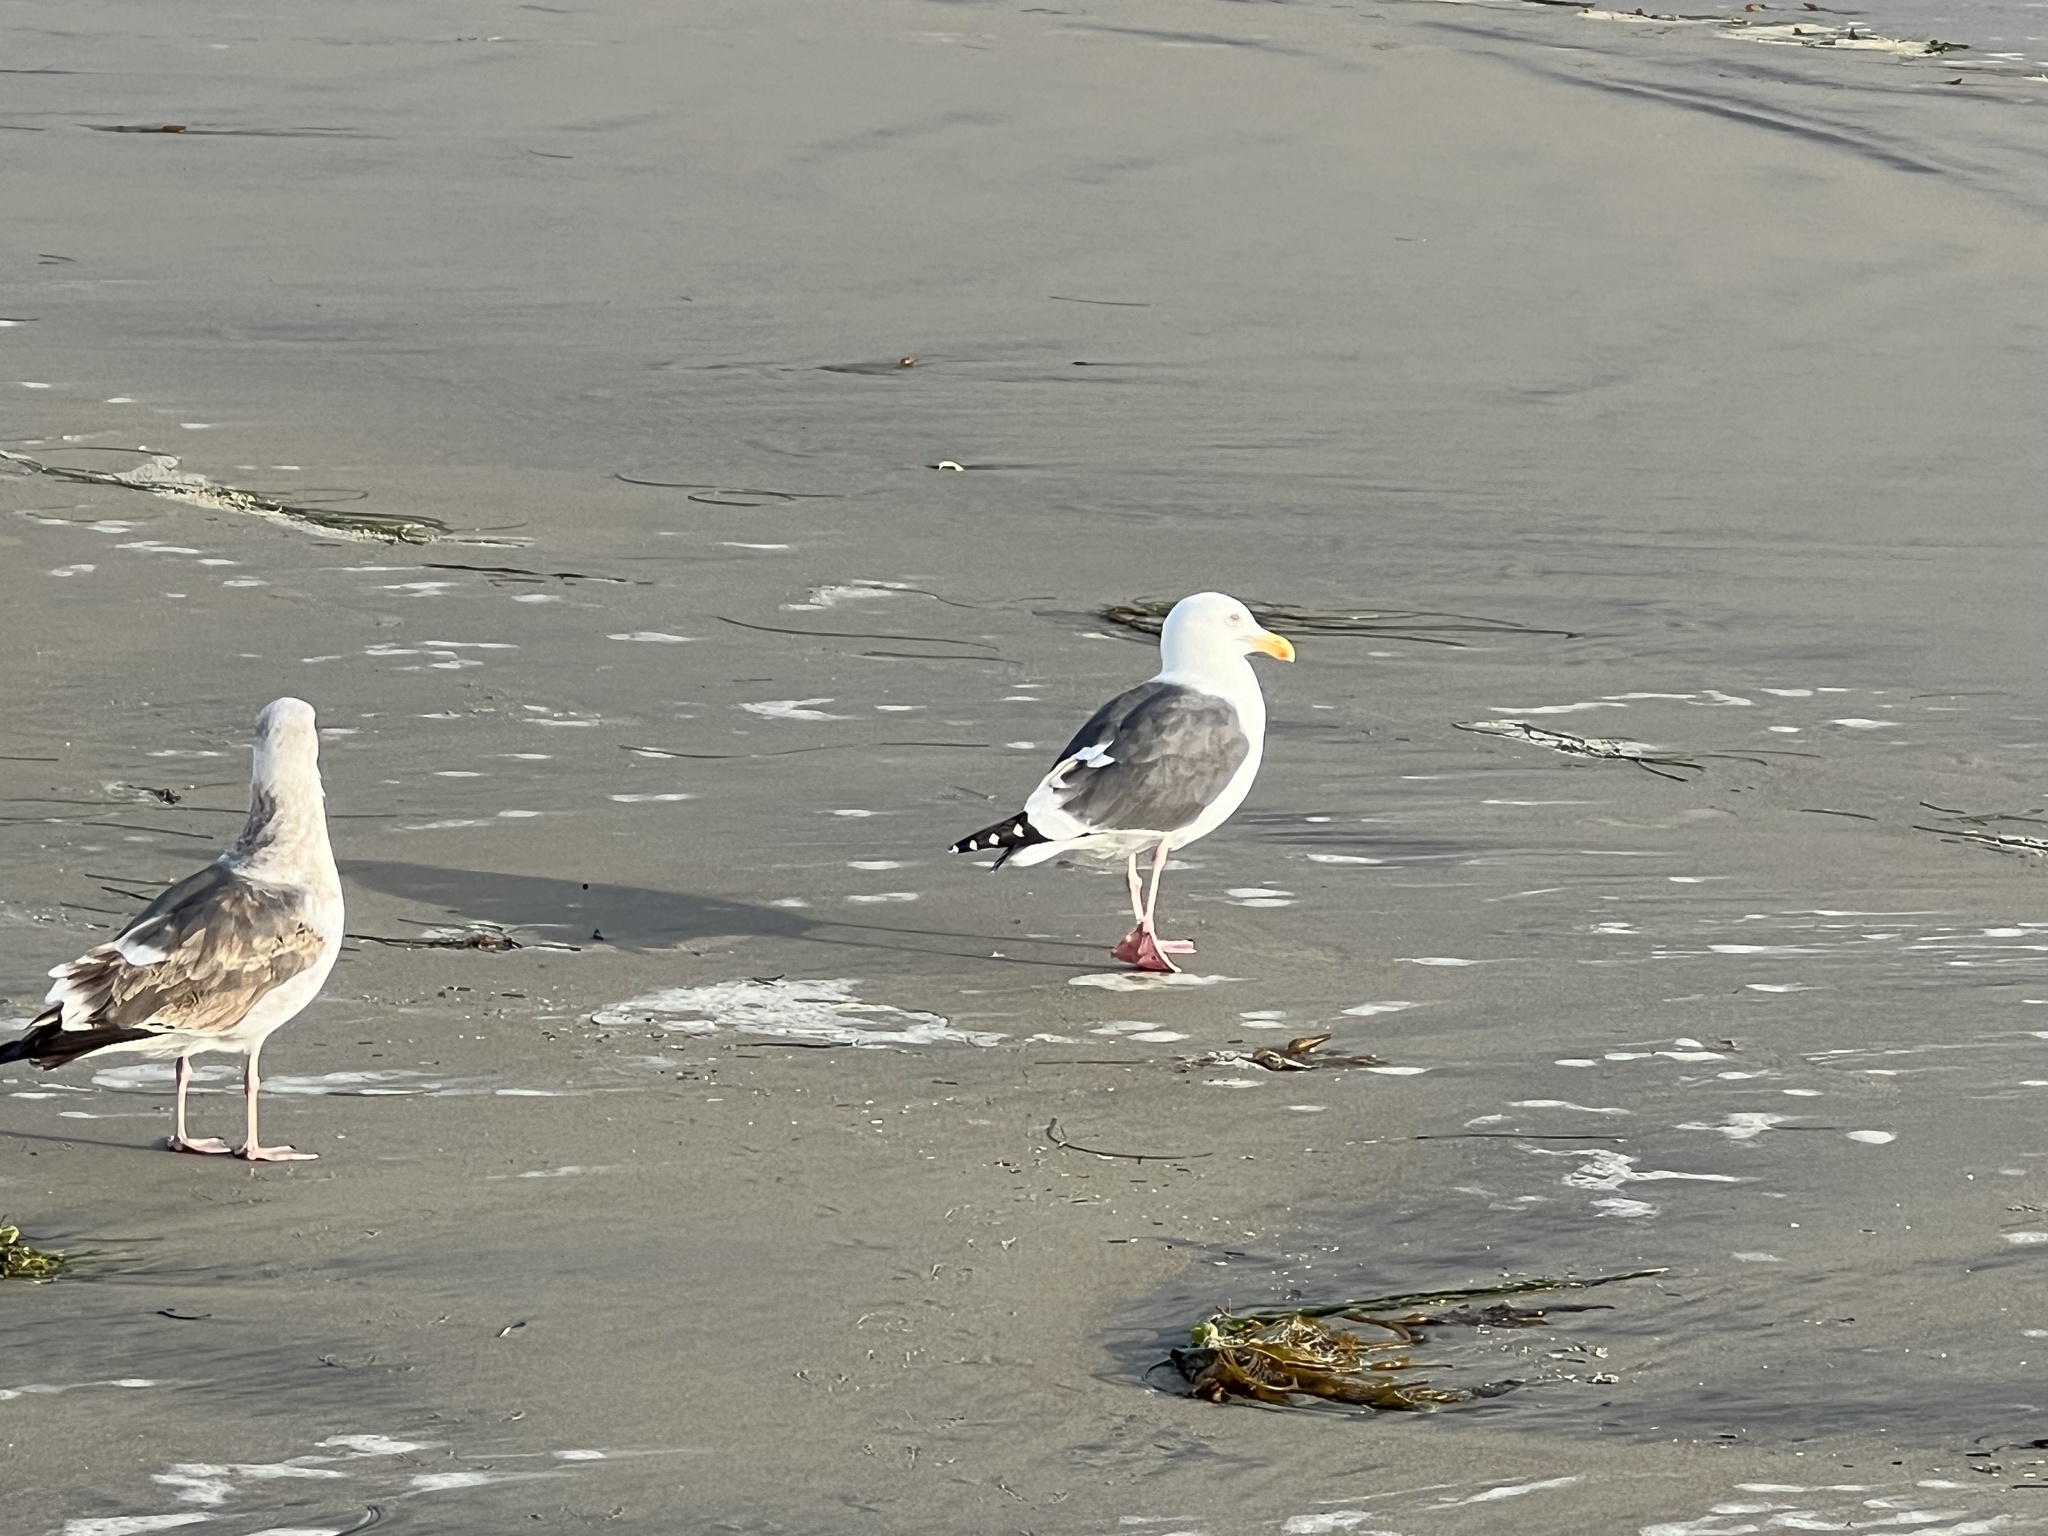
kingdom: Animalia
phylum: Chordata
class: Aves
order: Charadriiformes
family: Laridae
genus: Larus
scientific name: Larus occidentalis
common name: Western gull
